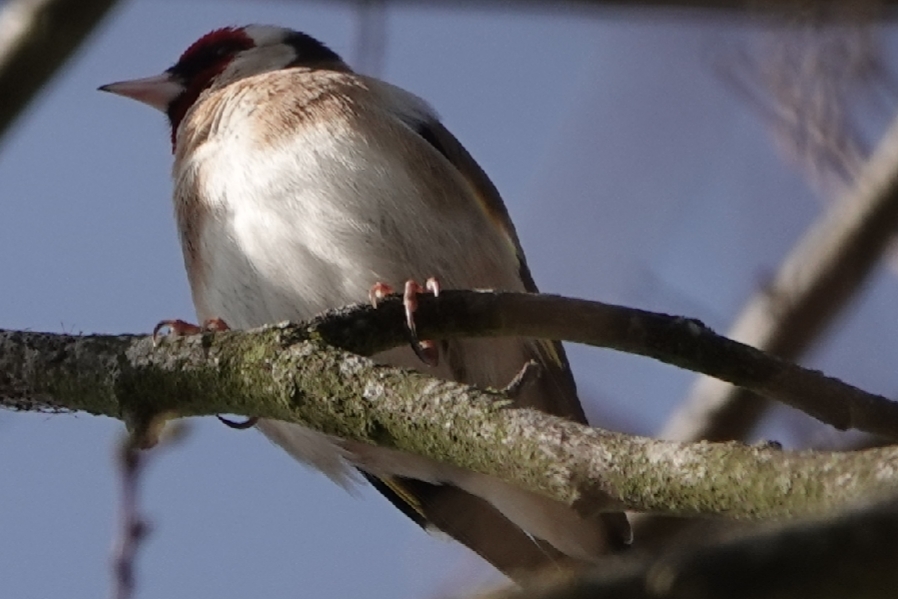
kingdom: Animalia
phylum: Chordata
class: Aves
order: Passeriformes
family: Fringillidae
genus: Carduelis
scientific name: Carduelis carduelis
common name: European goldfinch
